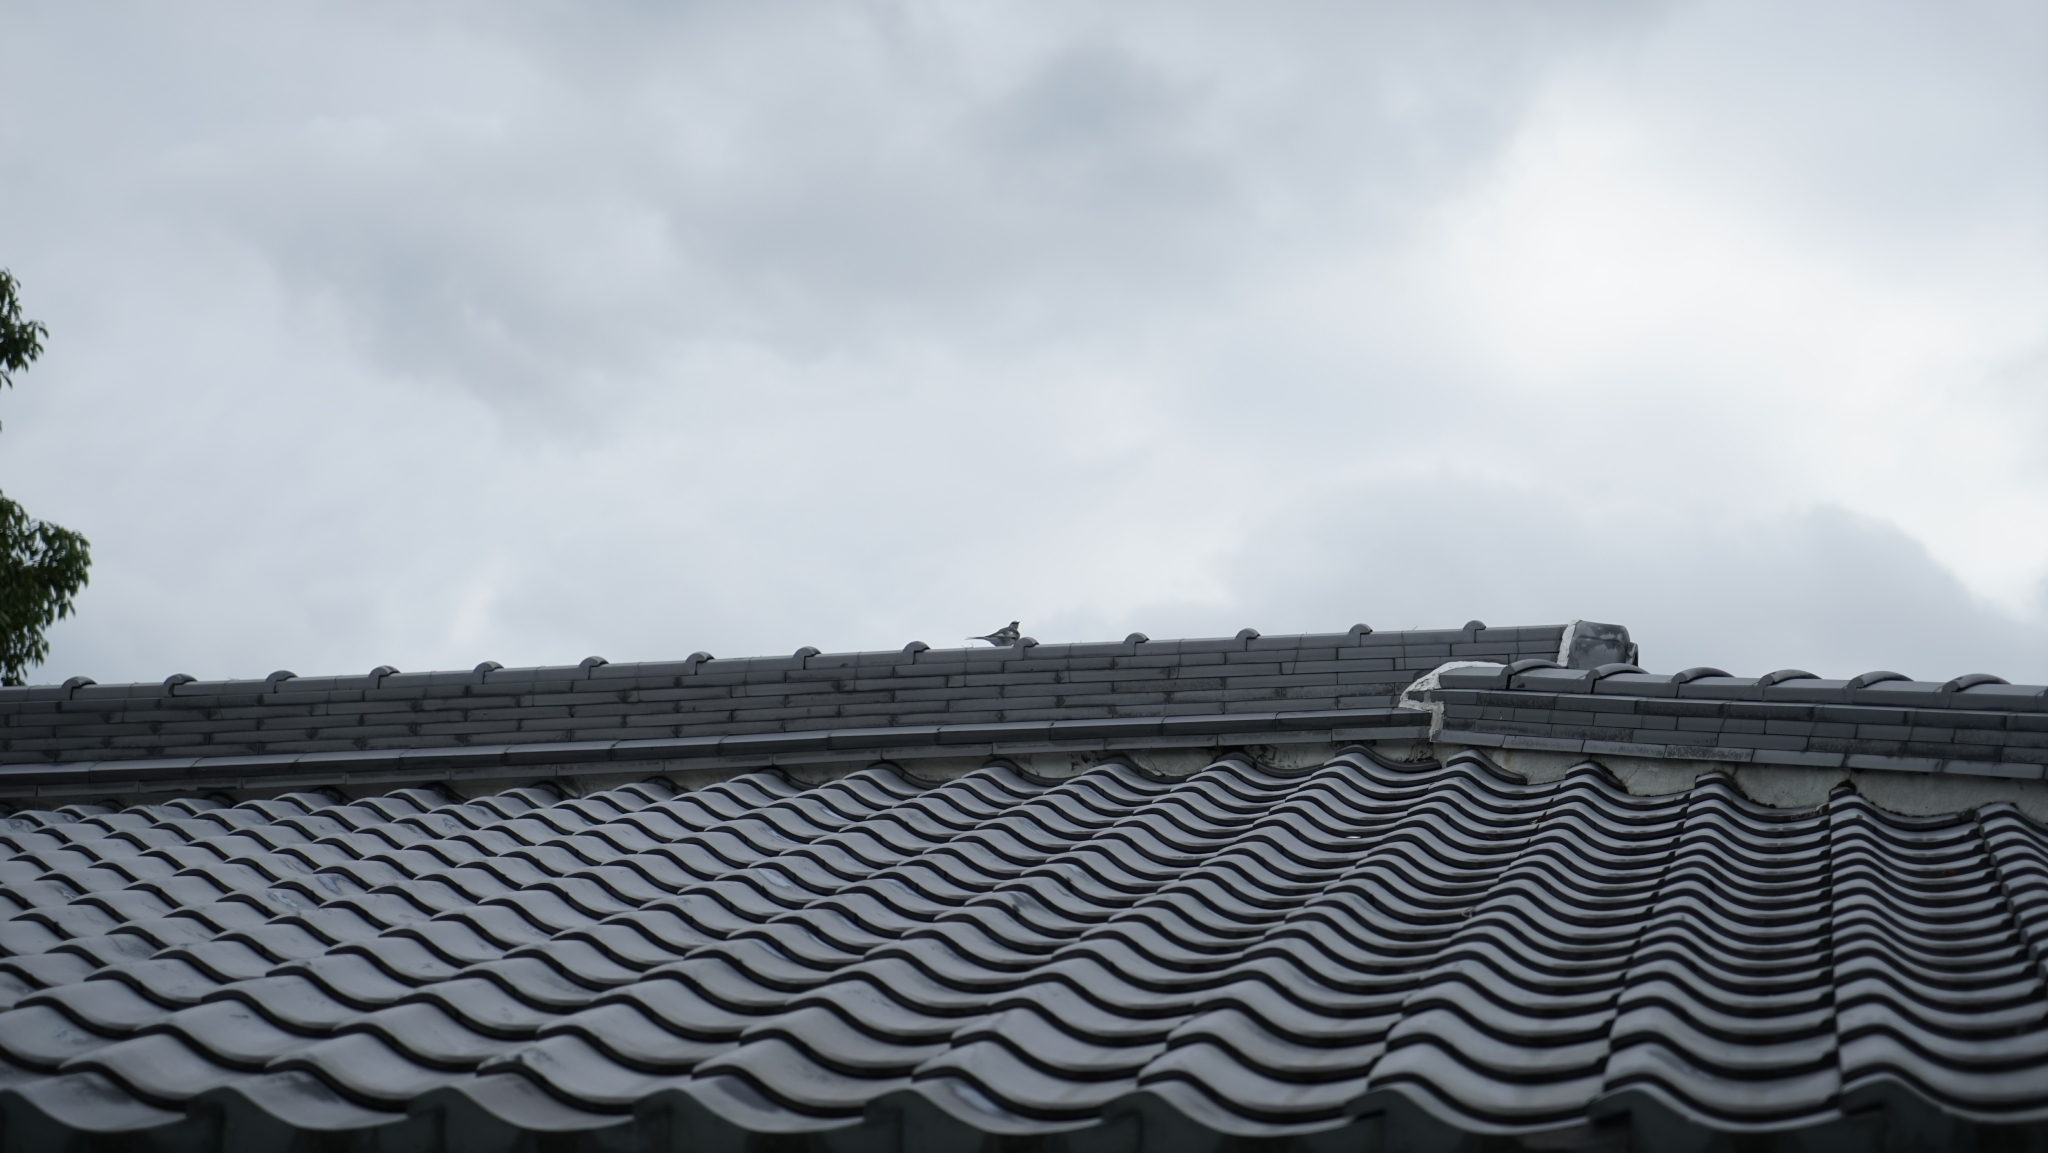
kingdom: Animalia
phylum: Chordata
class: Aves
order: Passeriformes
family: Motacillidae
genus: Motacilla
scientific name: Motacilla alba
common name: White wagtail
